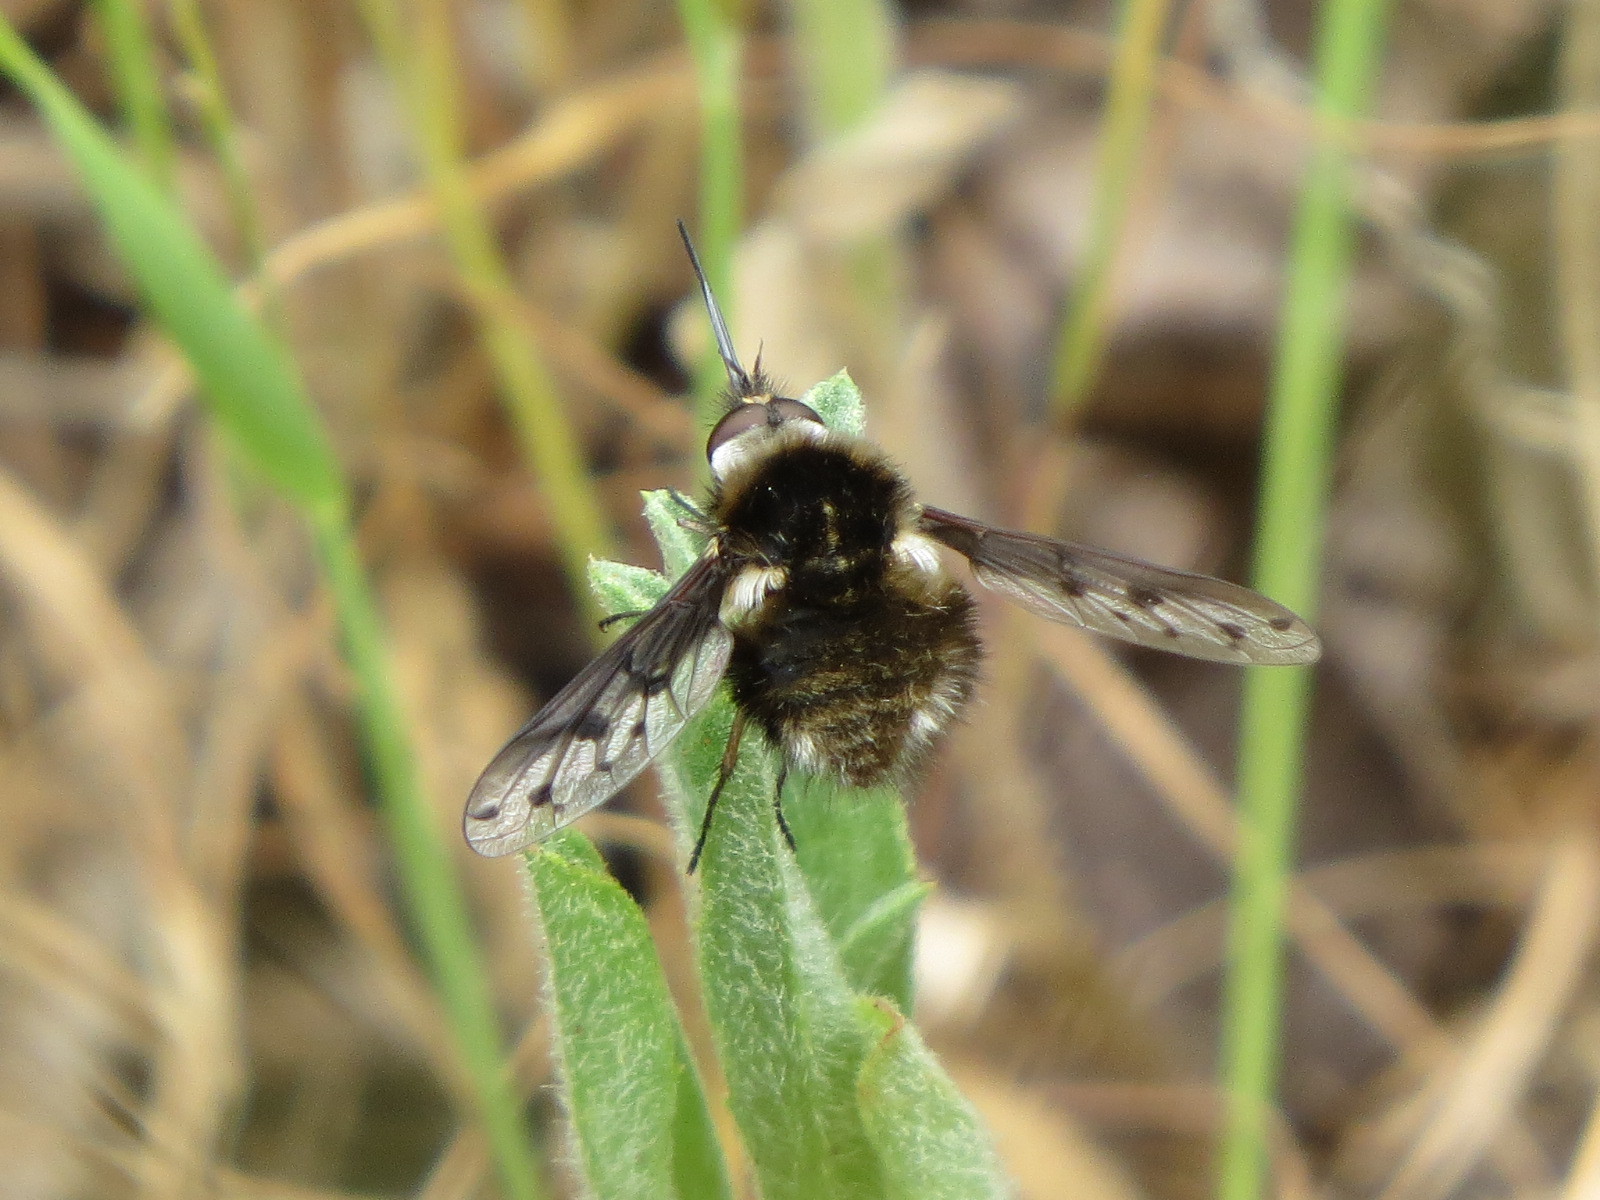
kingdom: Animalia
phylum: Arthropoda
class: Insecta
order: Diptera
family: Bombyliidae
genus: Bombylius
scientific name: Bombylius albicapillus
